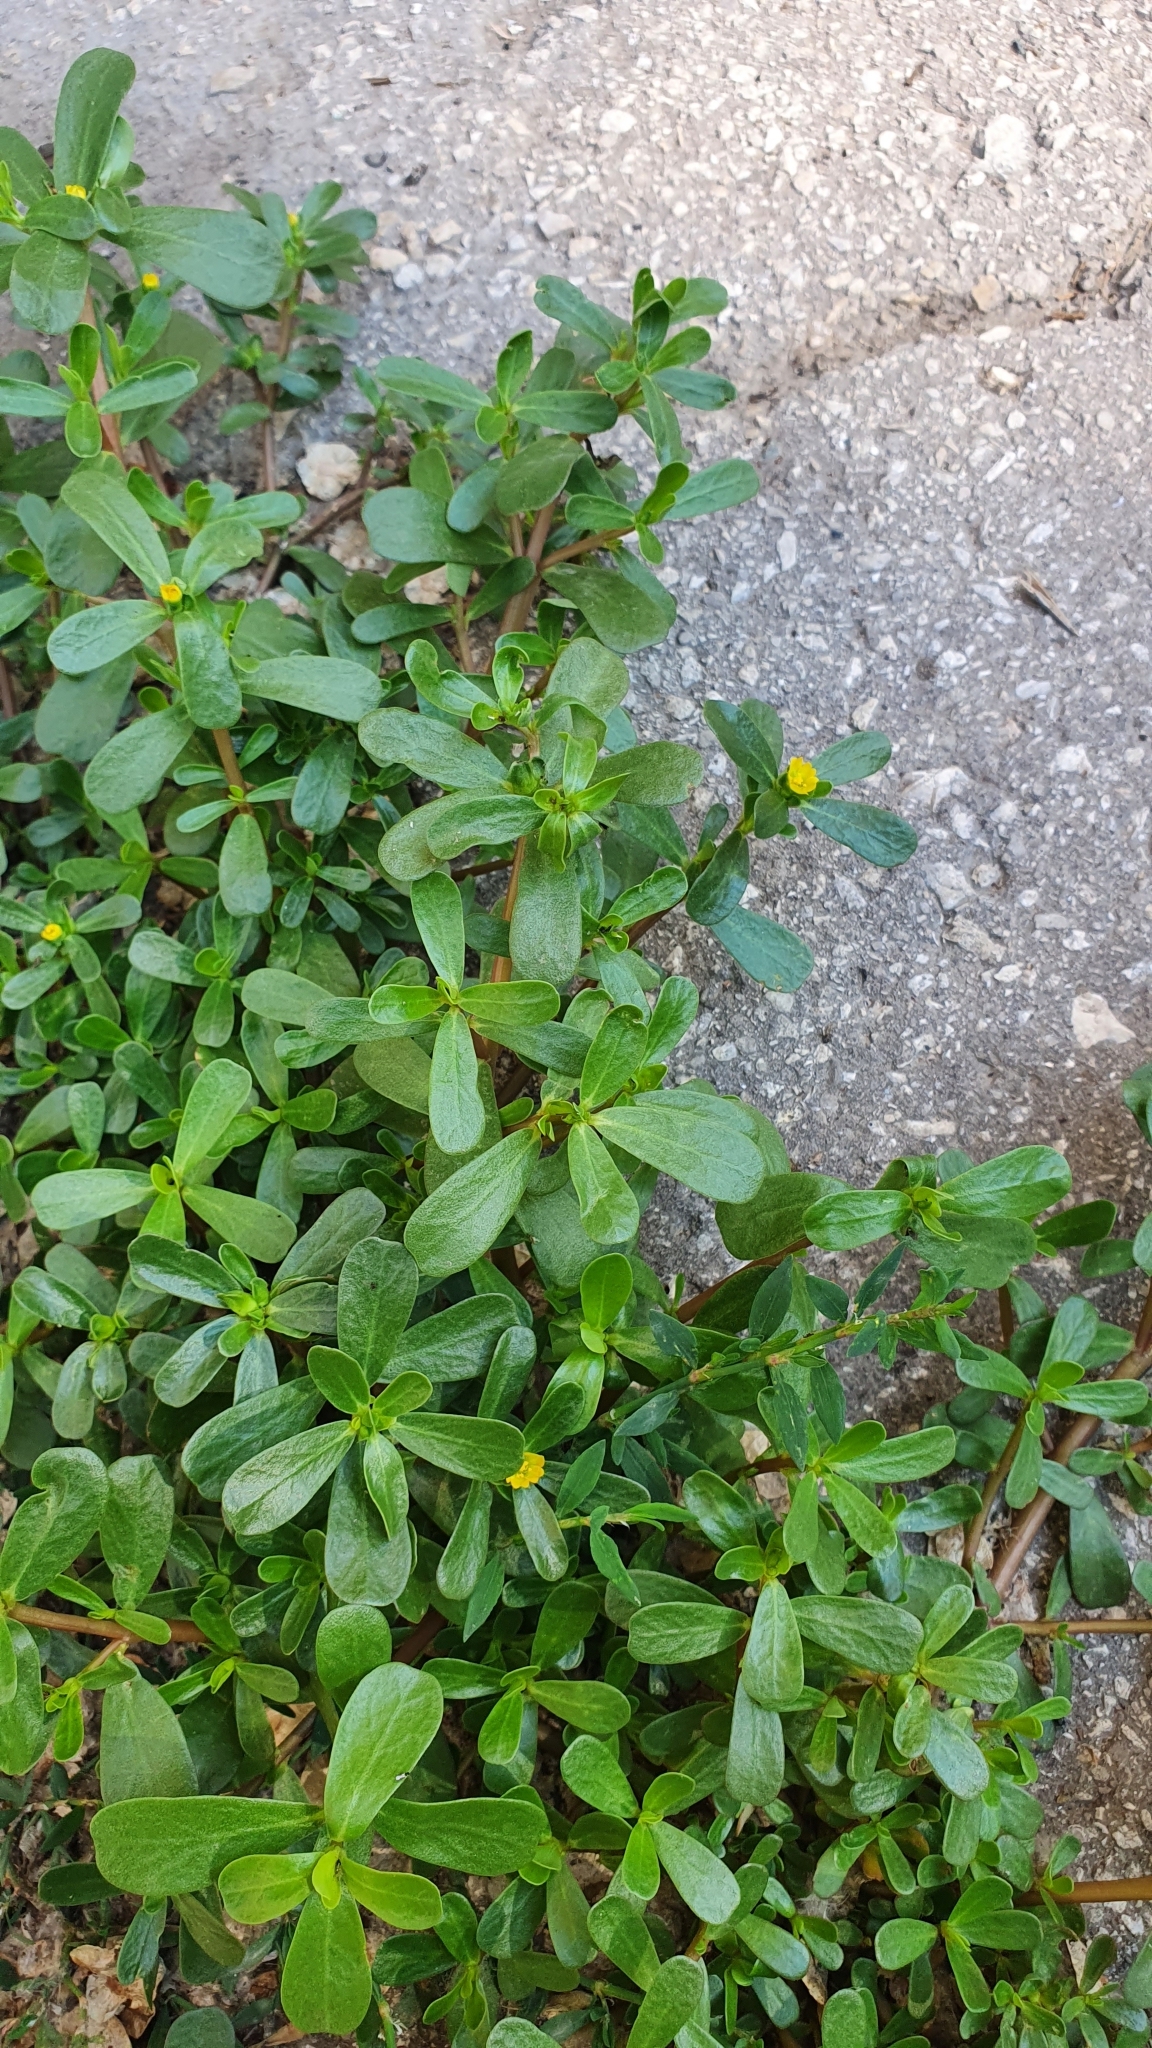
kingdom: Plantae
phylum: Tracheophyta
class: Magnoliopsida
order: Caryophyllales
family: Portulacaceae
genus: Portulaca
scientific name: Portulaca oleracea
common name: Common purslane
